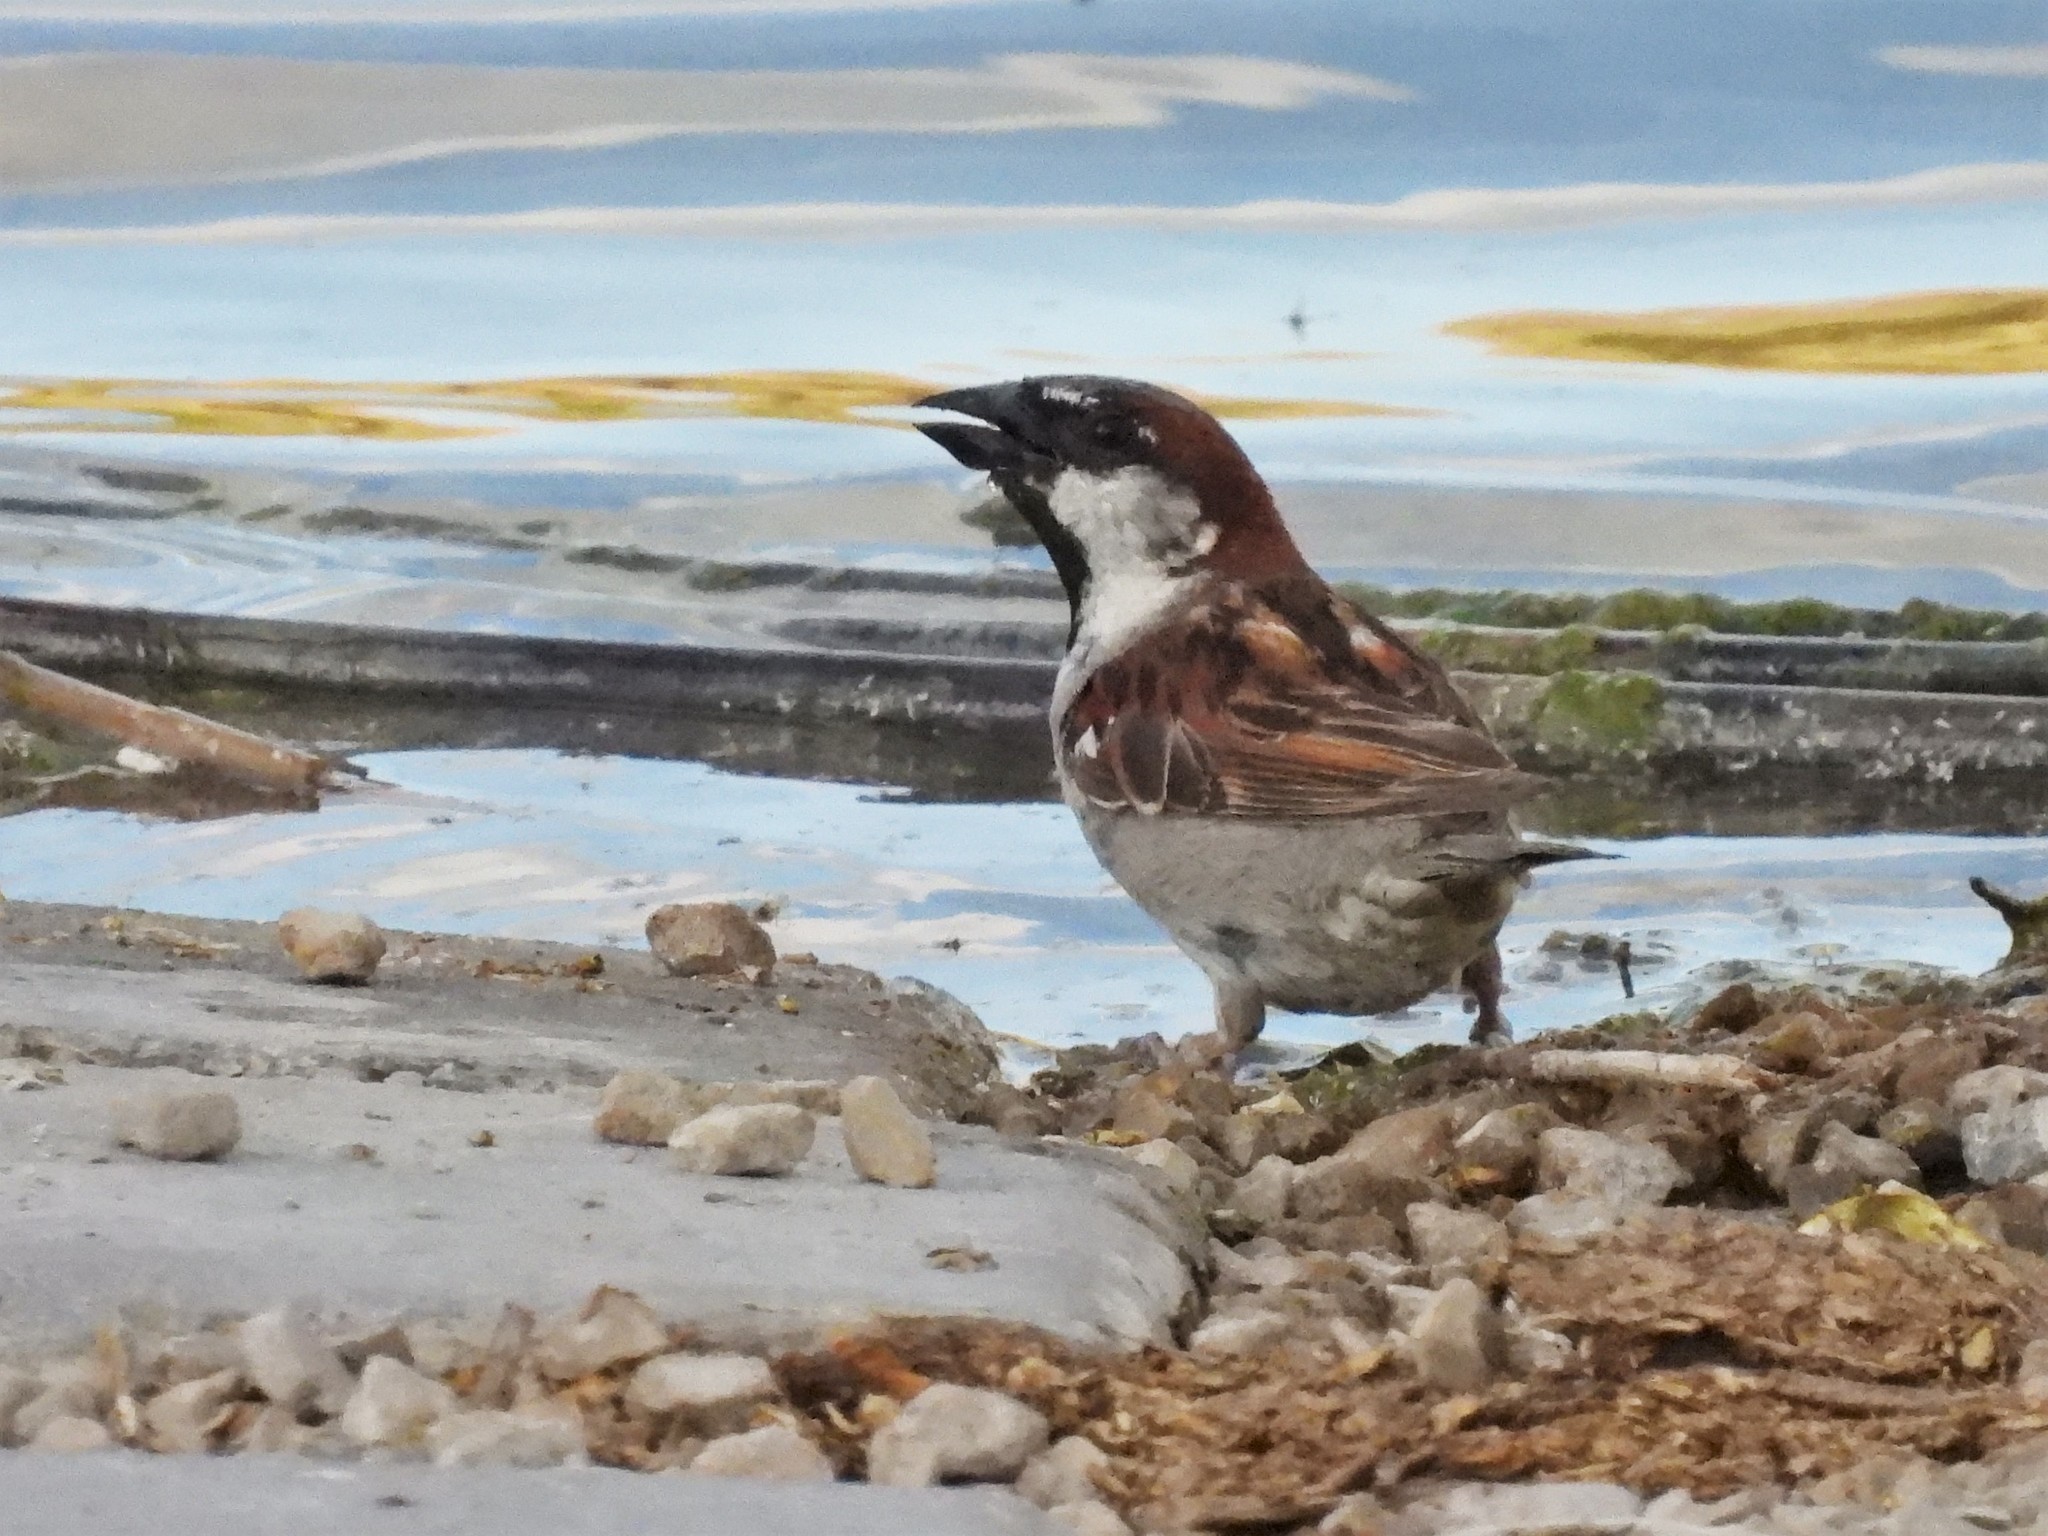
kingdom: Animalia
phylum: Chordata
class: Aves
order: Passeriformes
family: Passeridae
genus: Passer
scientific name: Passer domesticus
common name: House sparrow
